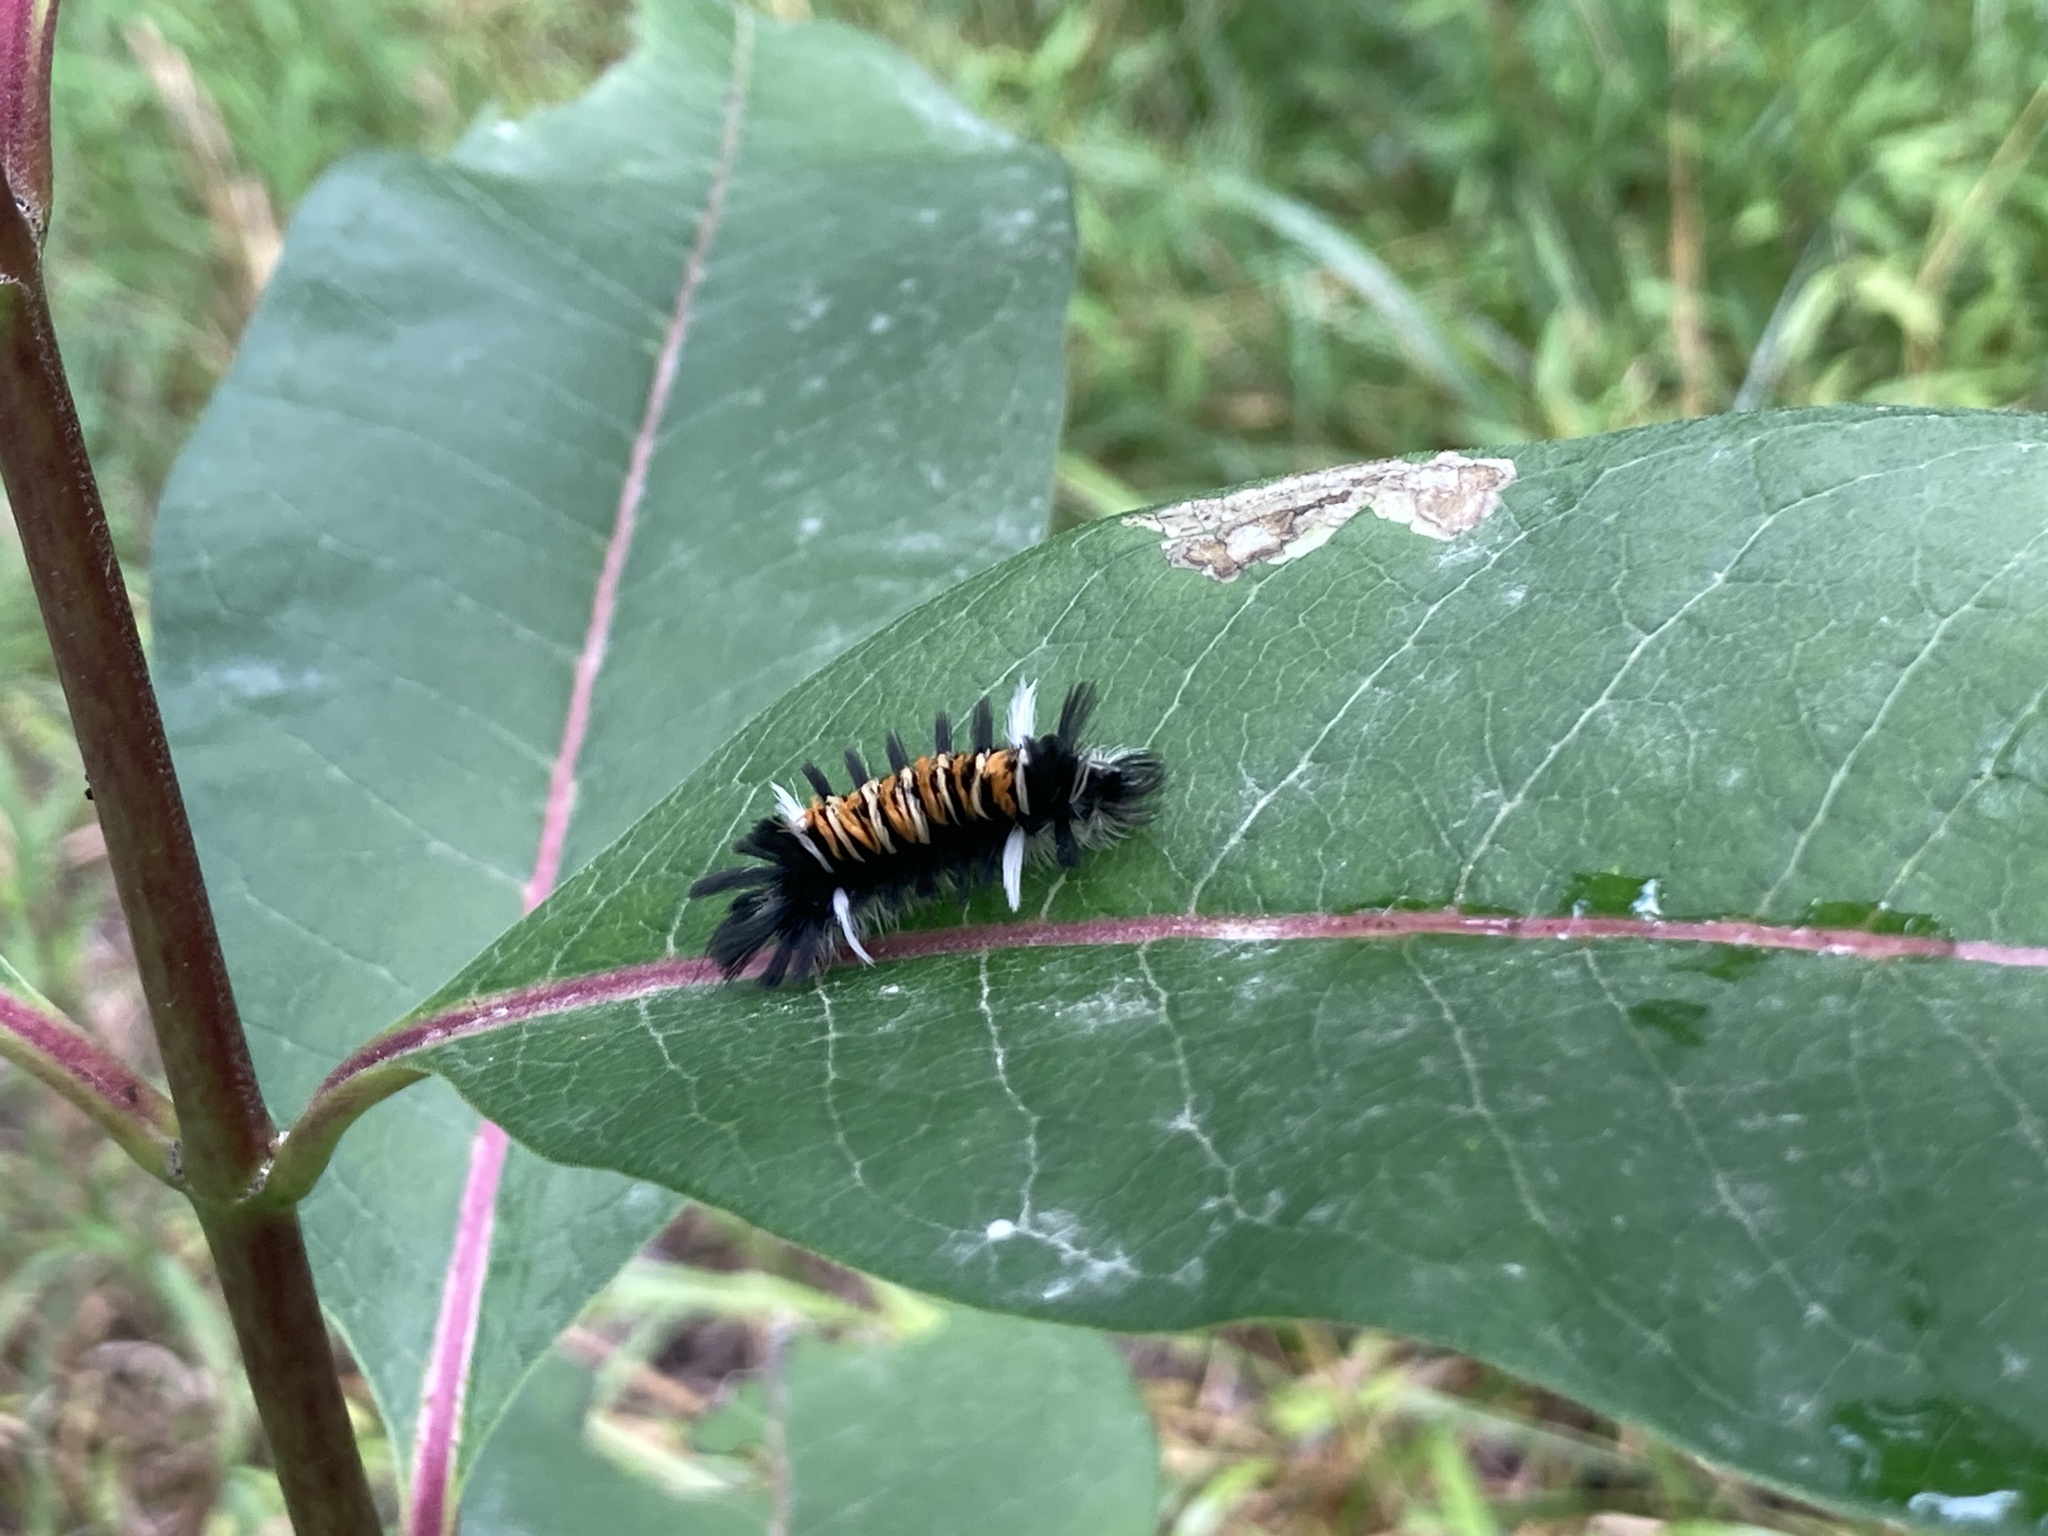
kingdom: Animalia
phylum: Arthropoda
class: Insecta
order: Lepidoptera
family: Erebidae
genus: Euchaetes
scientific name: Euchaetes egle
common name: Milkweed tussock moth
